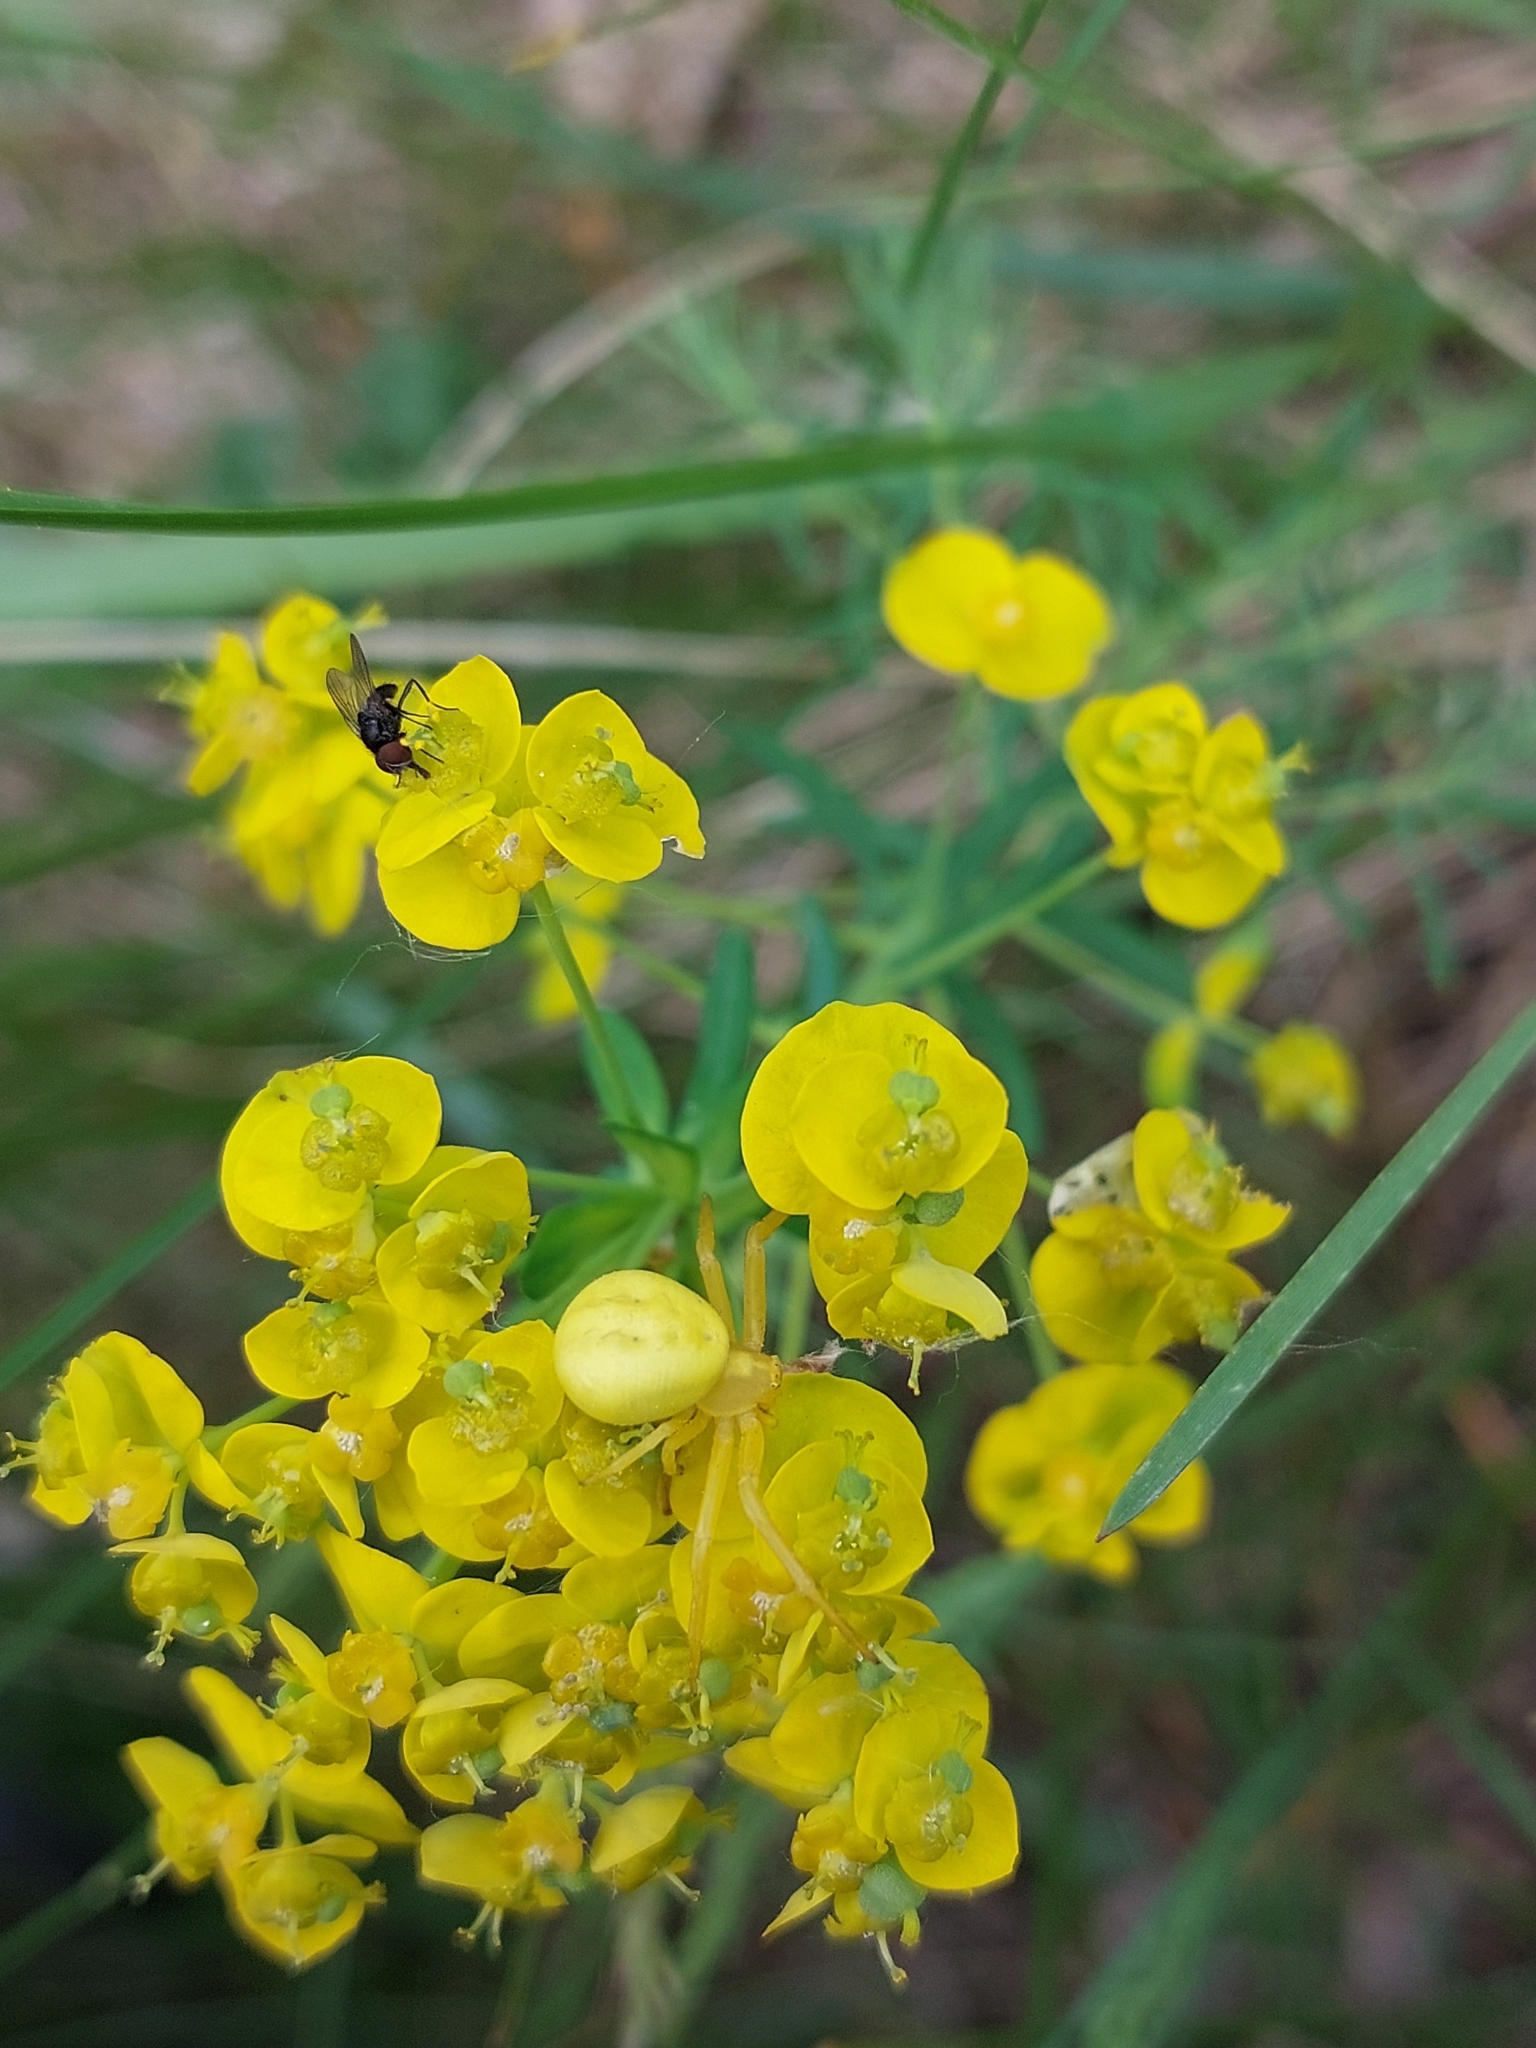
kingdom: Animalia
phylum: Arthropoda
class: Arachnida
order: Araneae
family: Thomisidae
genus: Misumena
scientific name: Misumena vatia
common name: Goldenrod crab spider
